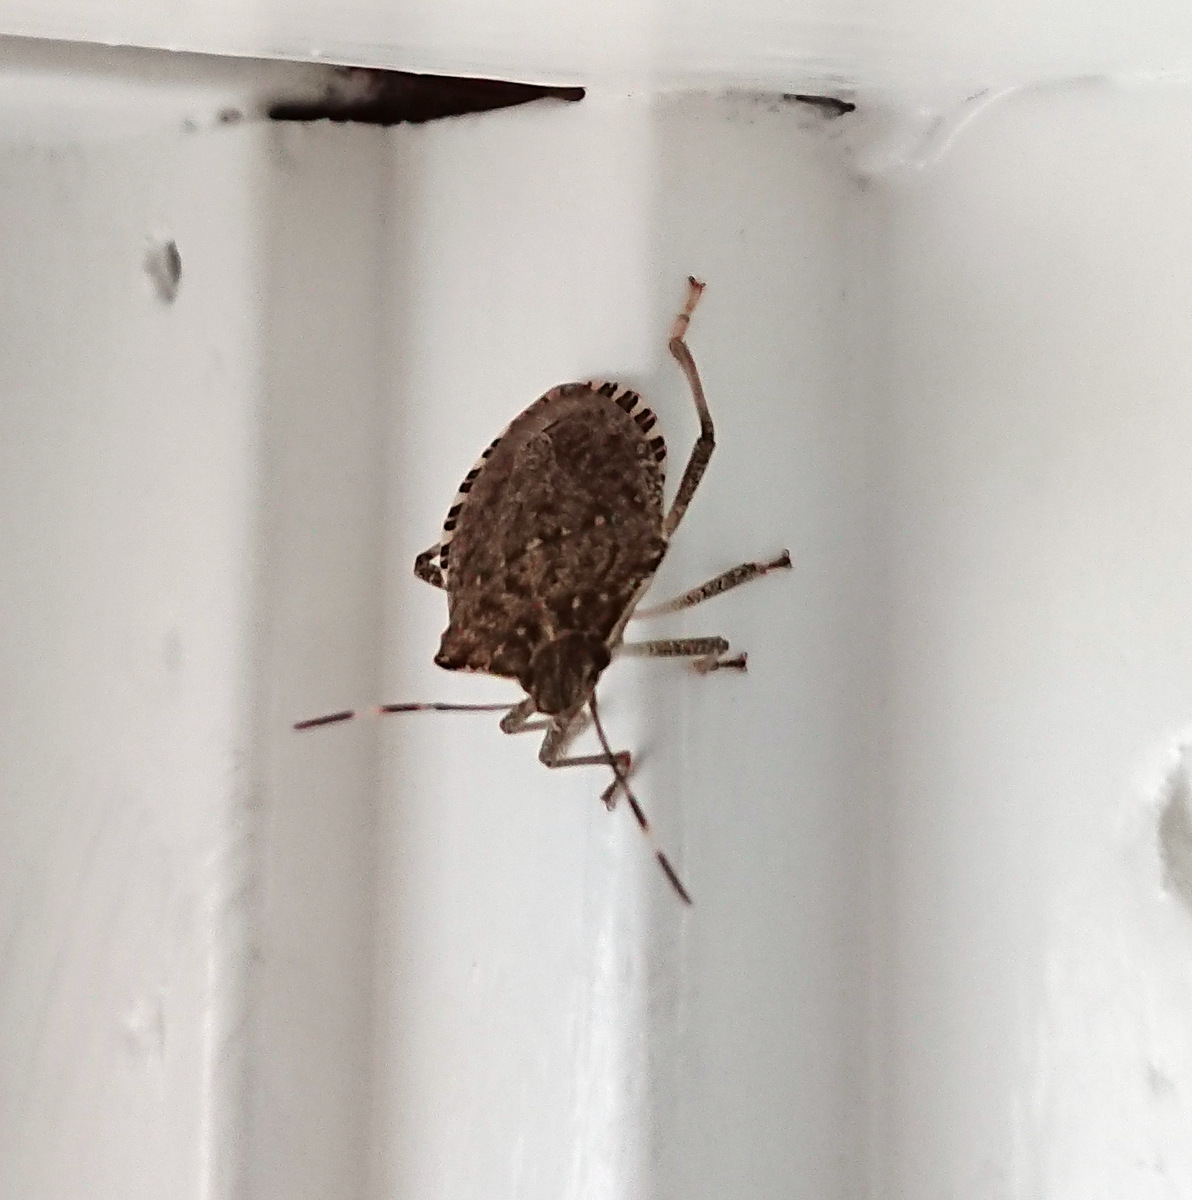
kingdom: Animalia
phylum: Arthropoda
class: Insecta
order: Hemiptera
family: Pentatomidae
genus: Halyomorpha
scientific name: Halyomorpha halys
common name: Brown marmorated stink bug
